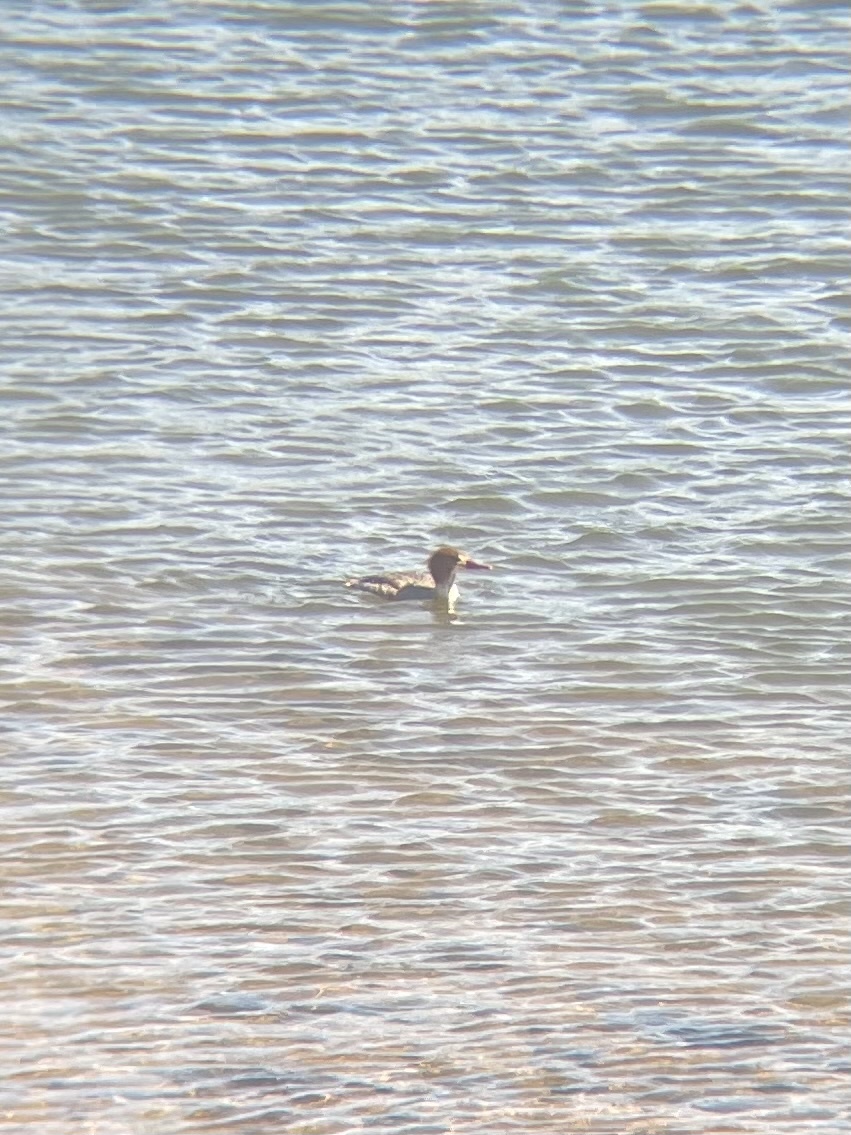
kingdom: Animalia
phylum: Chordata
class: Aves
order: Anseriformes
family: Anatidae
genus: Mergus
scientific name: Mergus merganser
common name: Common merganser
